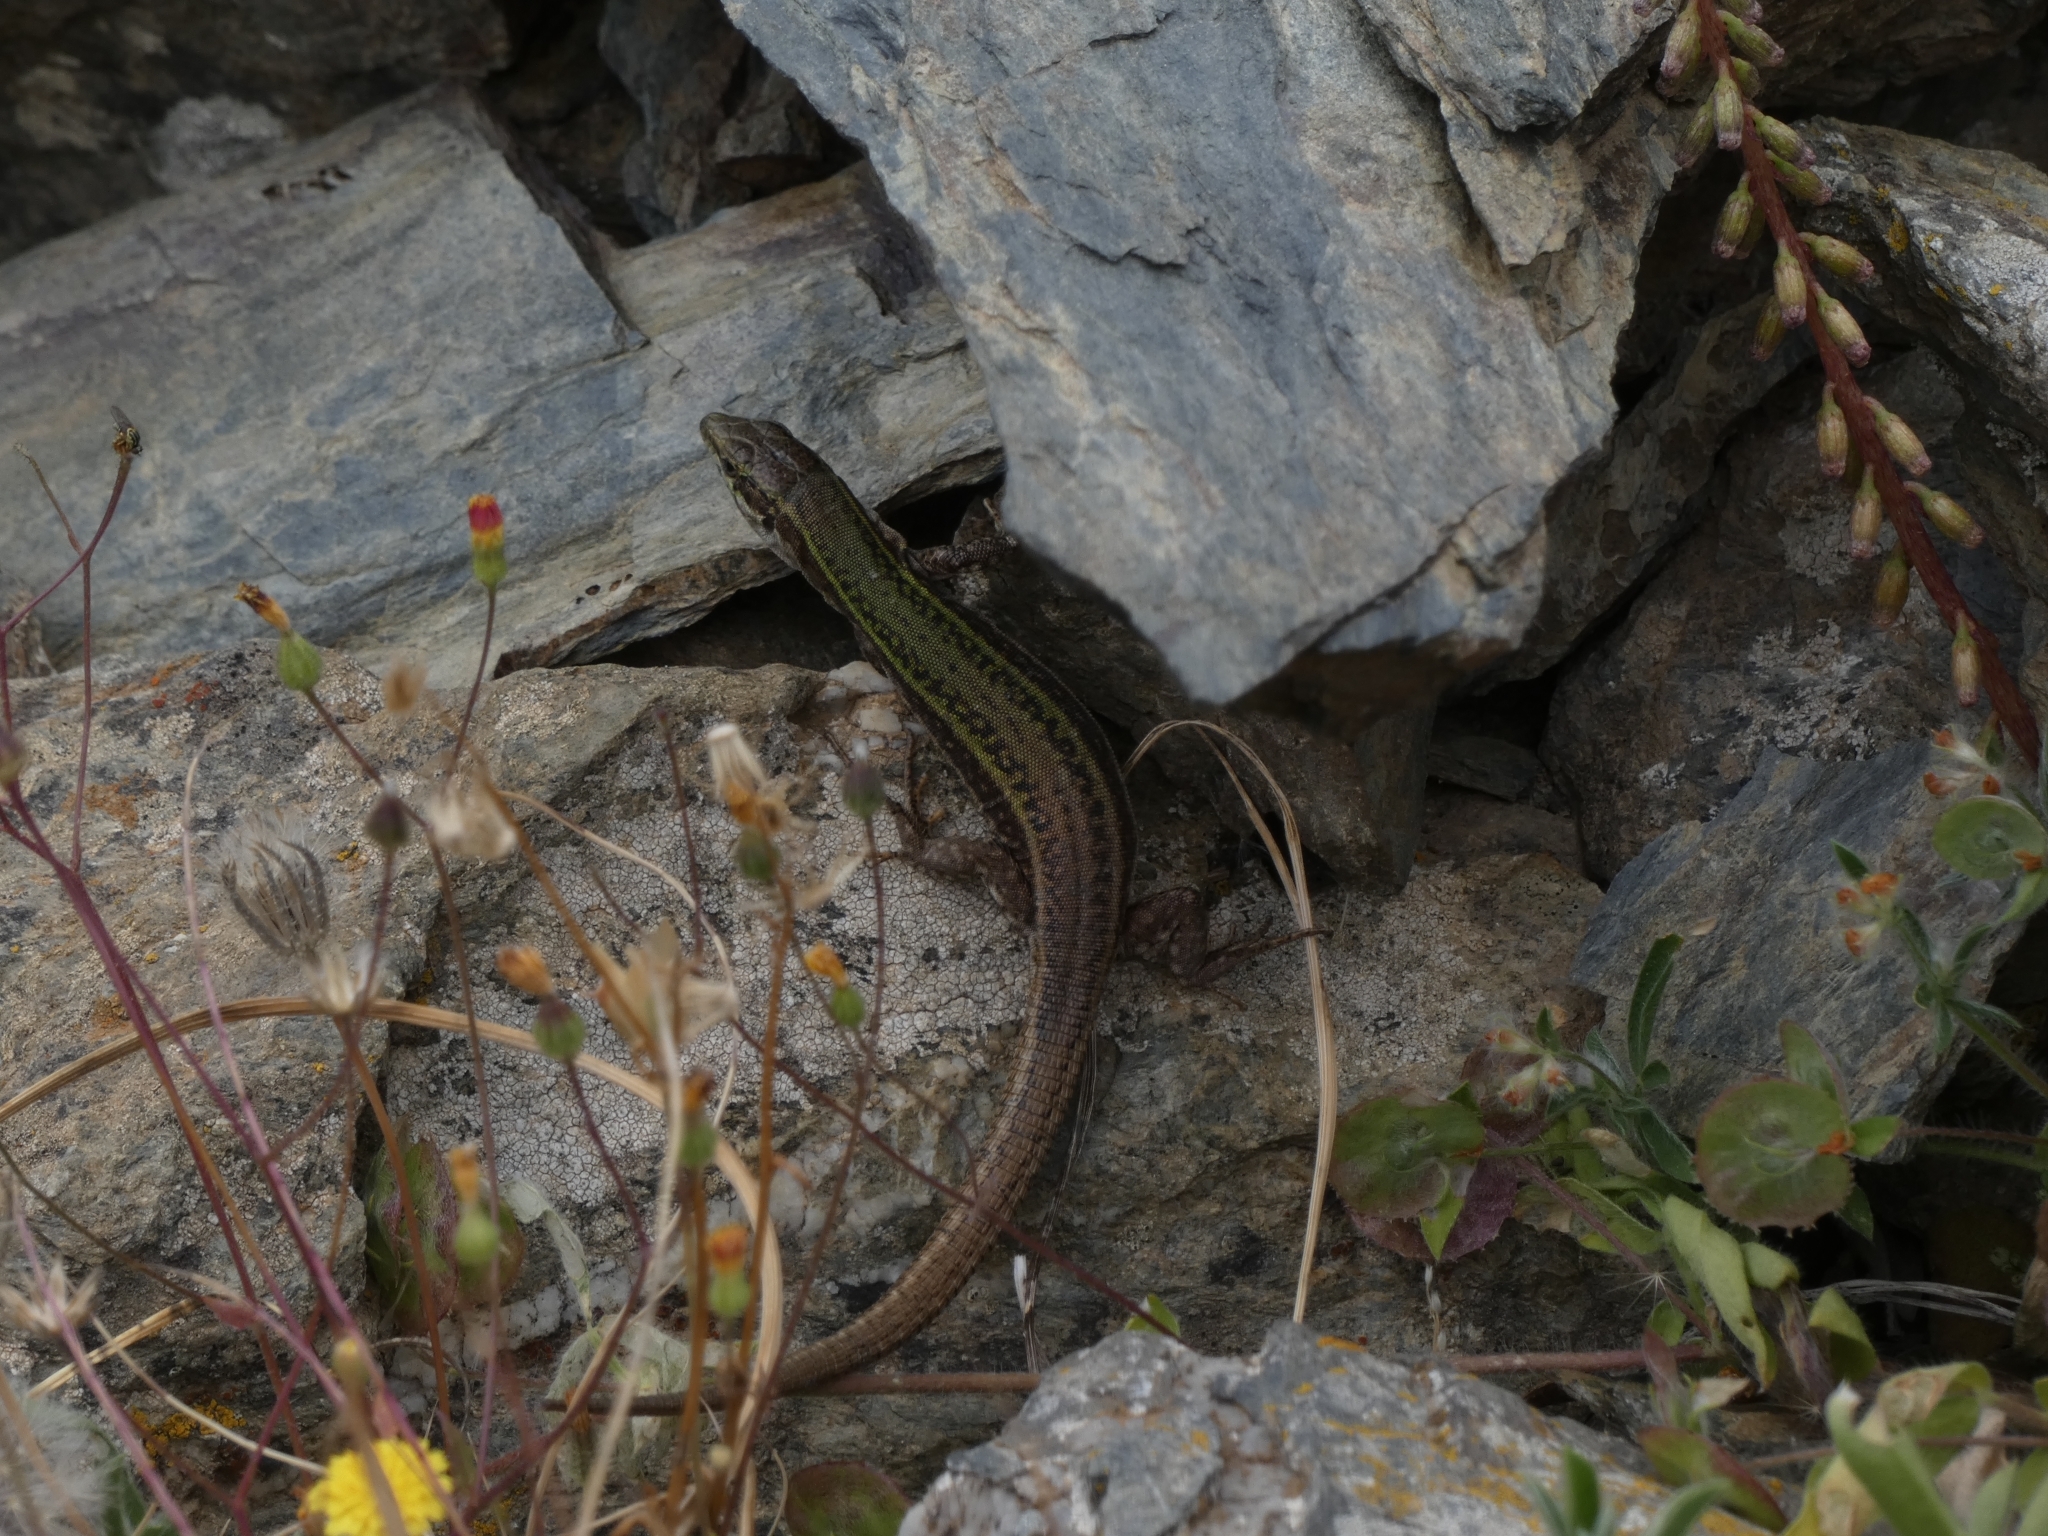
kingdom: Animalia
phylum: Chordata
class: Squamata
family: Lacertidae
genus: Podarcis
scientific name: Podarcis erhardii
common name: Erhard's wall lizard
